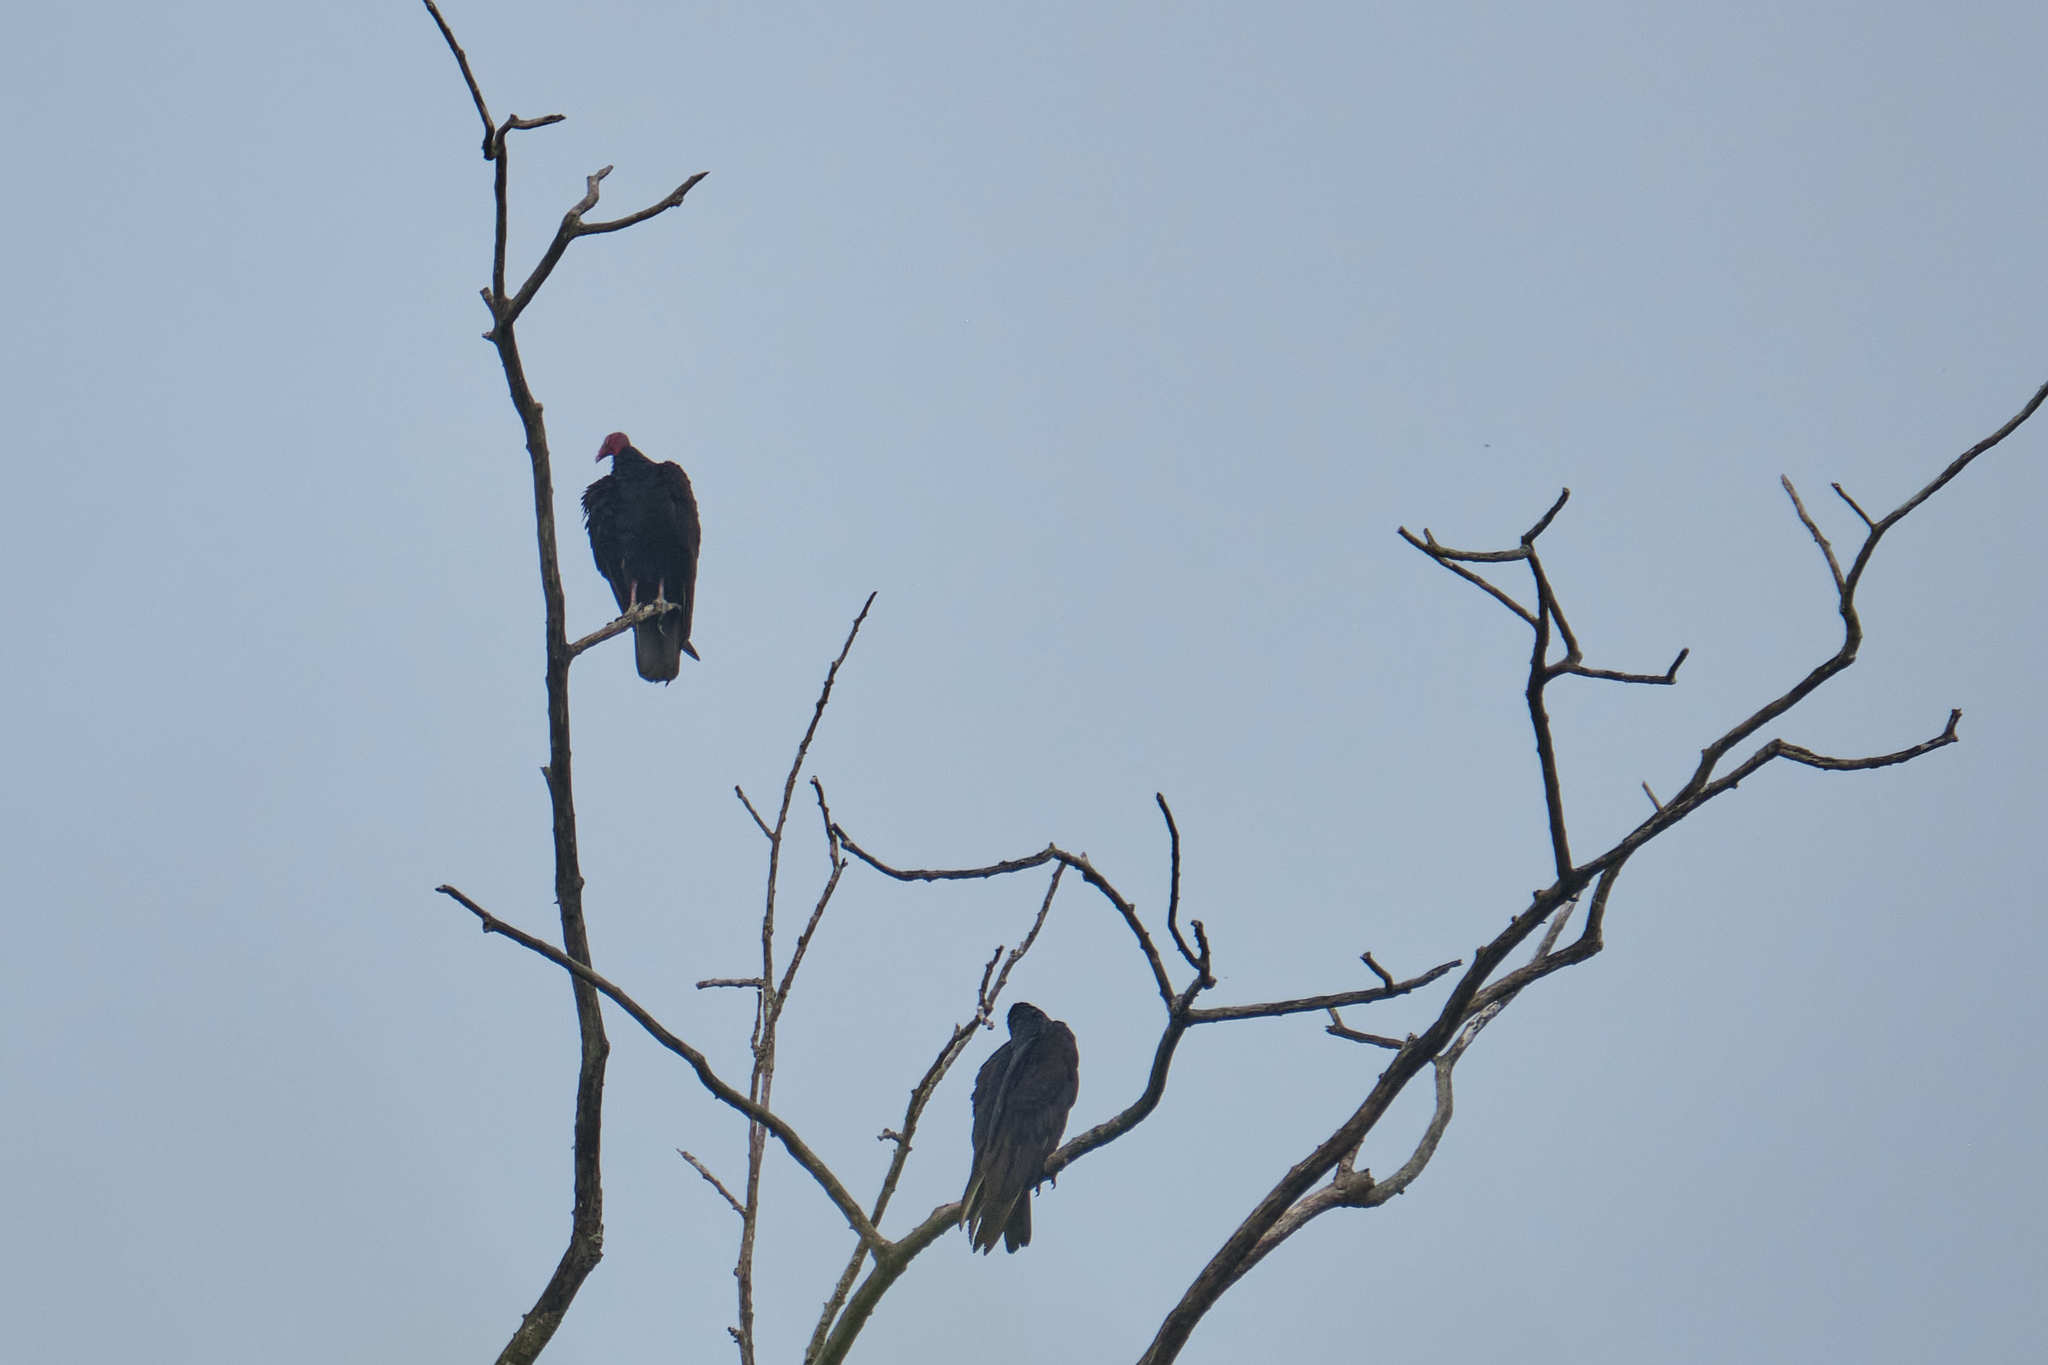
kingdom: Animalia
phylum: Chordata
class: Aves
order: Accipitriformes
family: Cathartidae
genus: Cathartes
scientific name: Cathartes aura
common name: Turkey vulture
